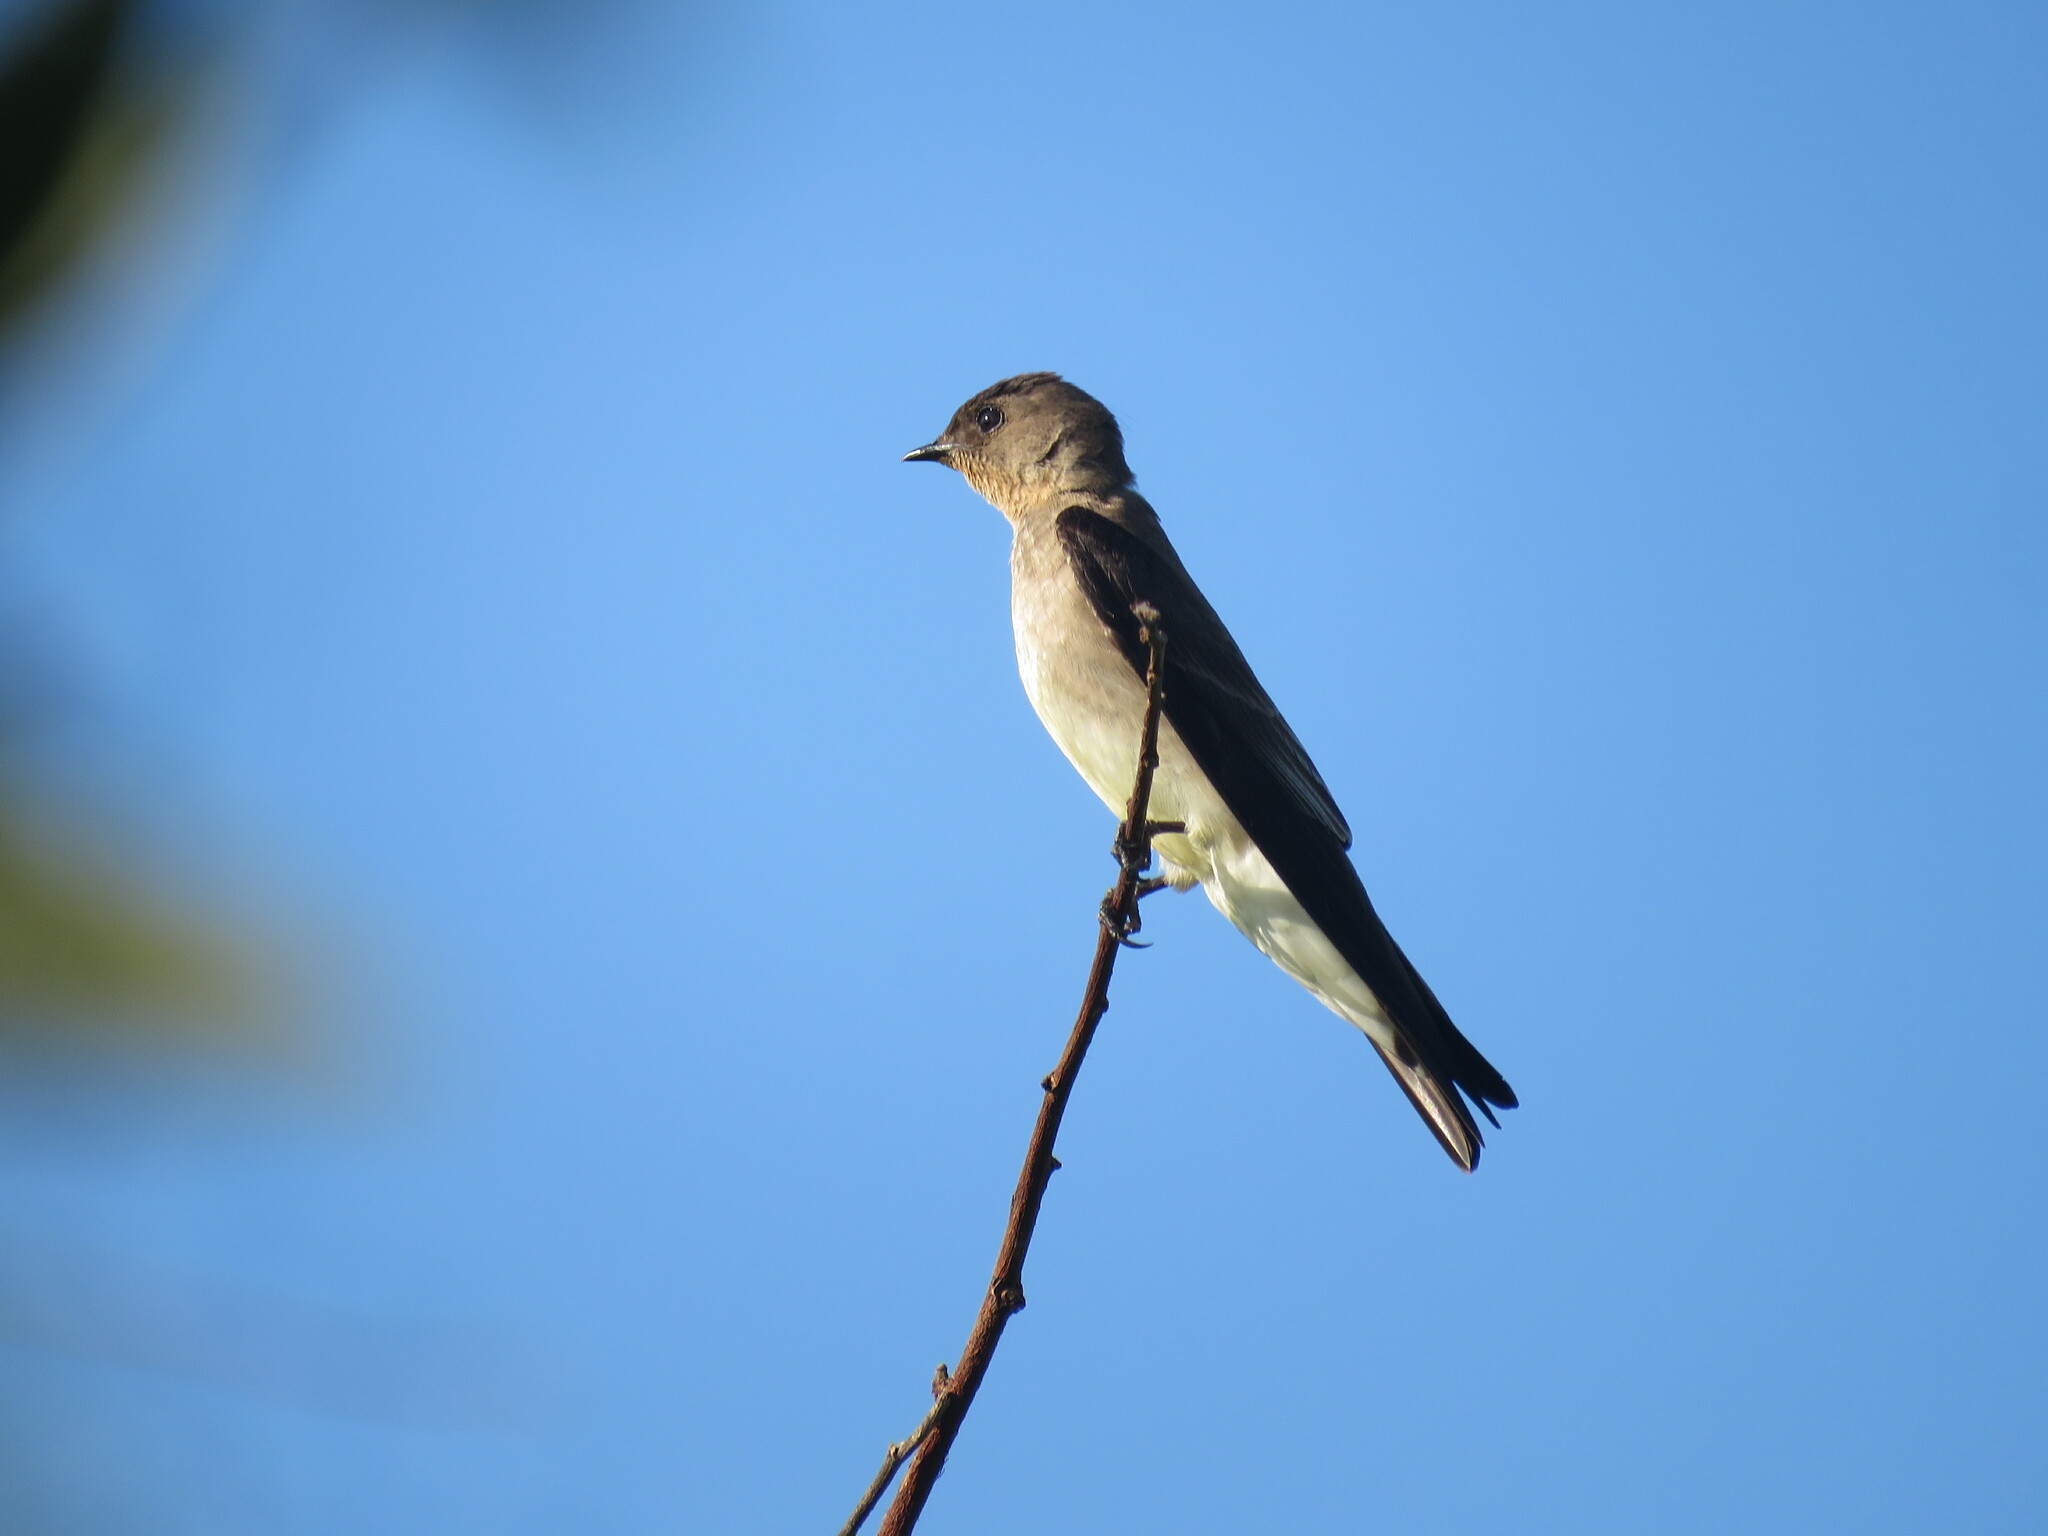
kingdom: Animalia
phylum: Chordata
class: Aves
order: Passeriformes
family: Hirundinidae
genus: Stelgidopteryx
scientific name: Stelgidopteryx ruficollis
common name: Southern rough-winged swallow
